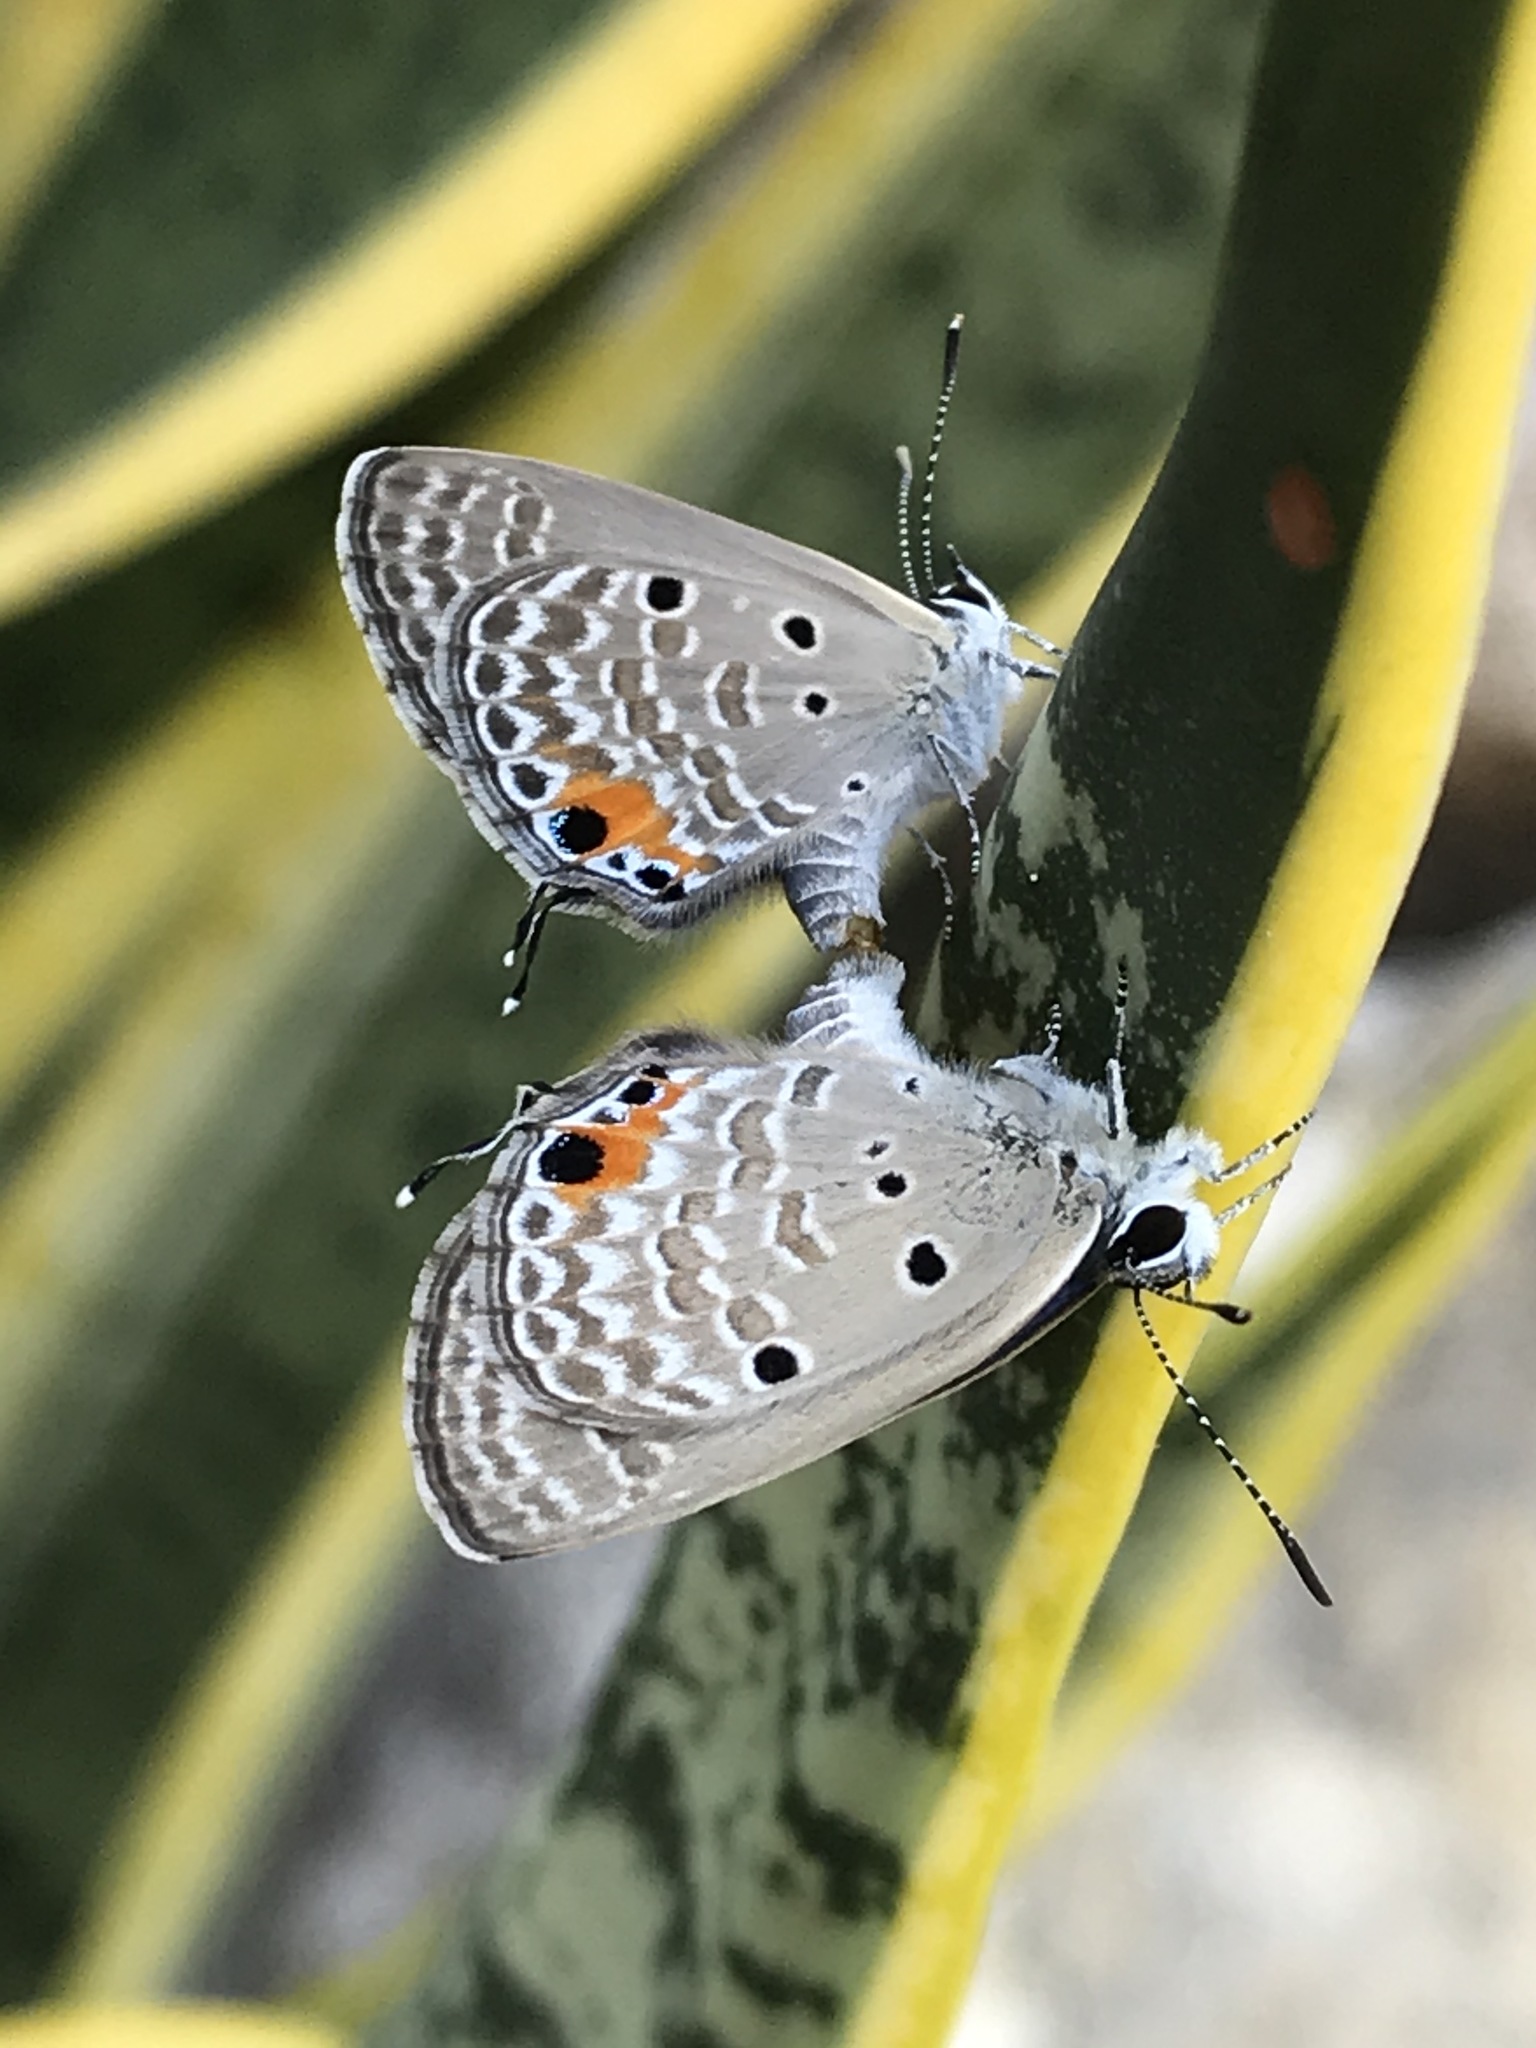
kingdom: Animalia
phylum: Arthropoda
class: Insecta
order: Lepidoptera
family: Lycaenidae
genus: Luthrodes
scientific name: Luthrodes pandava
